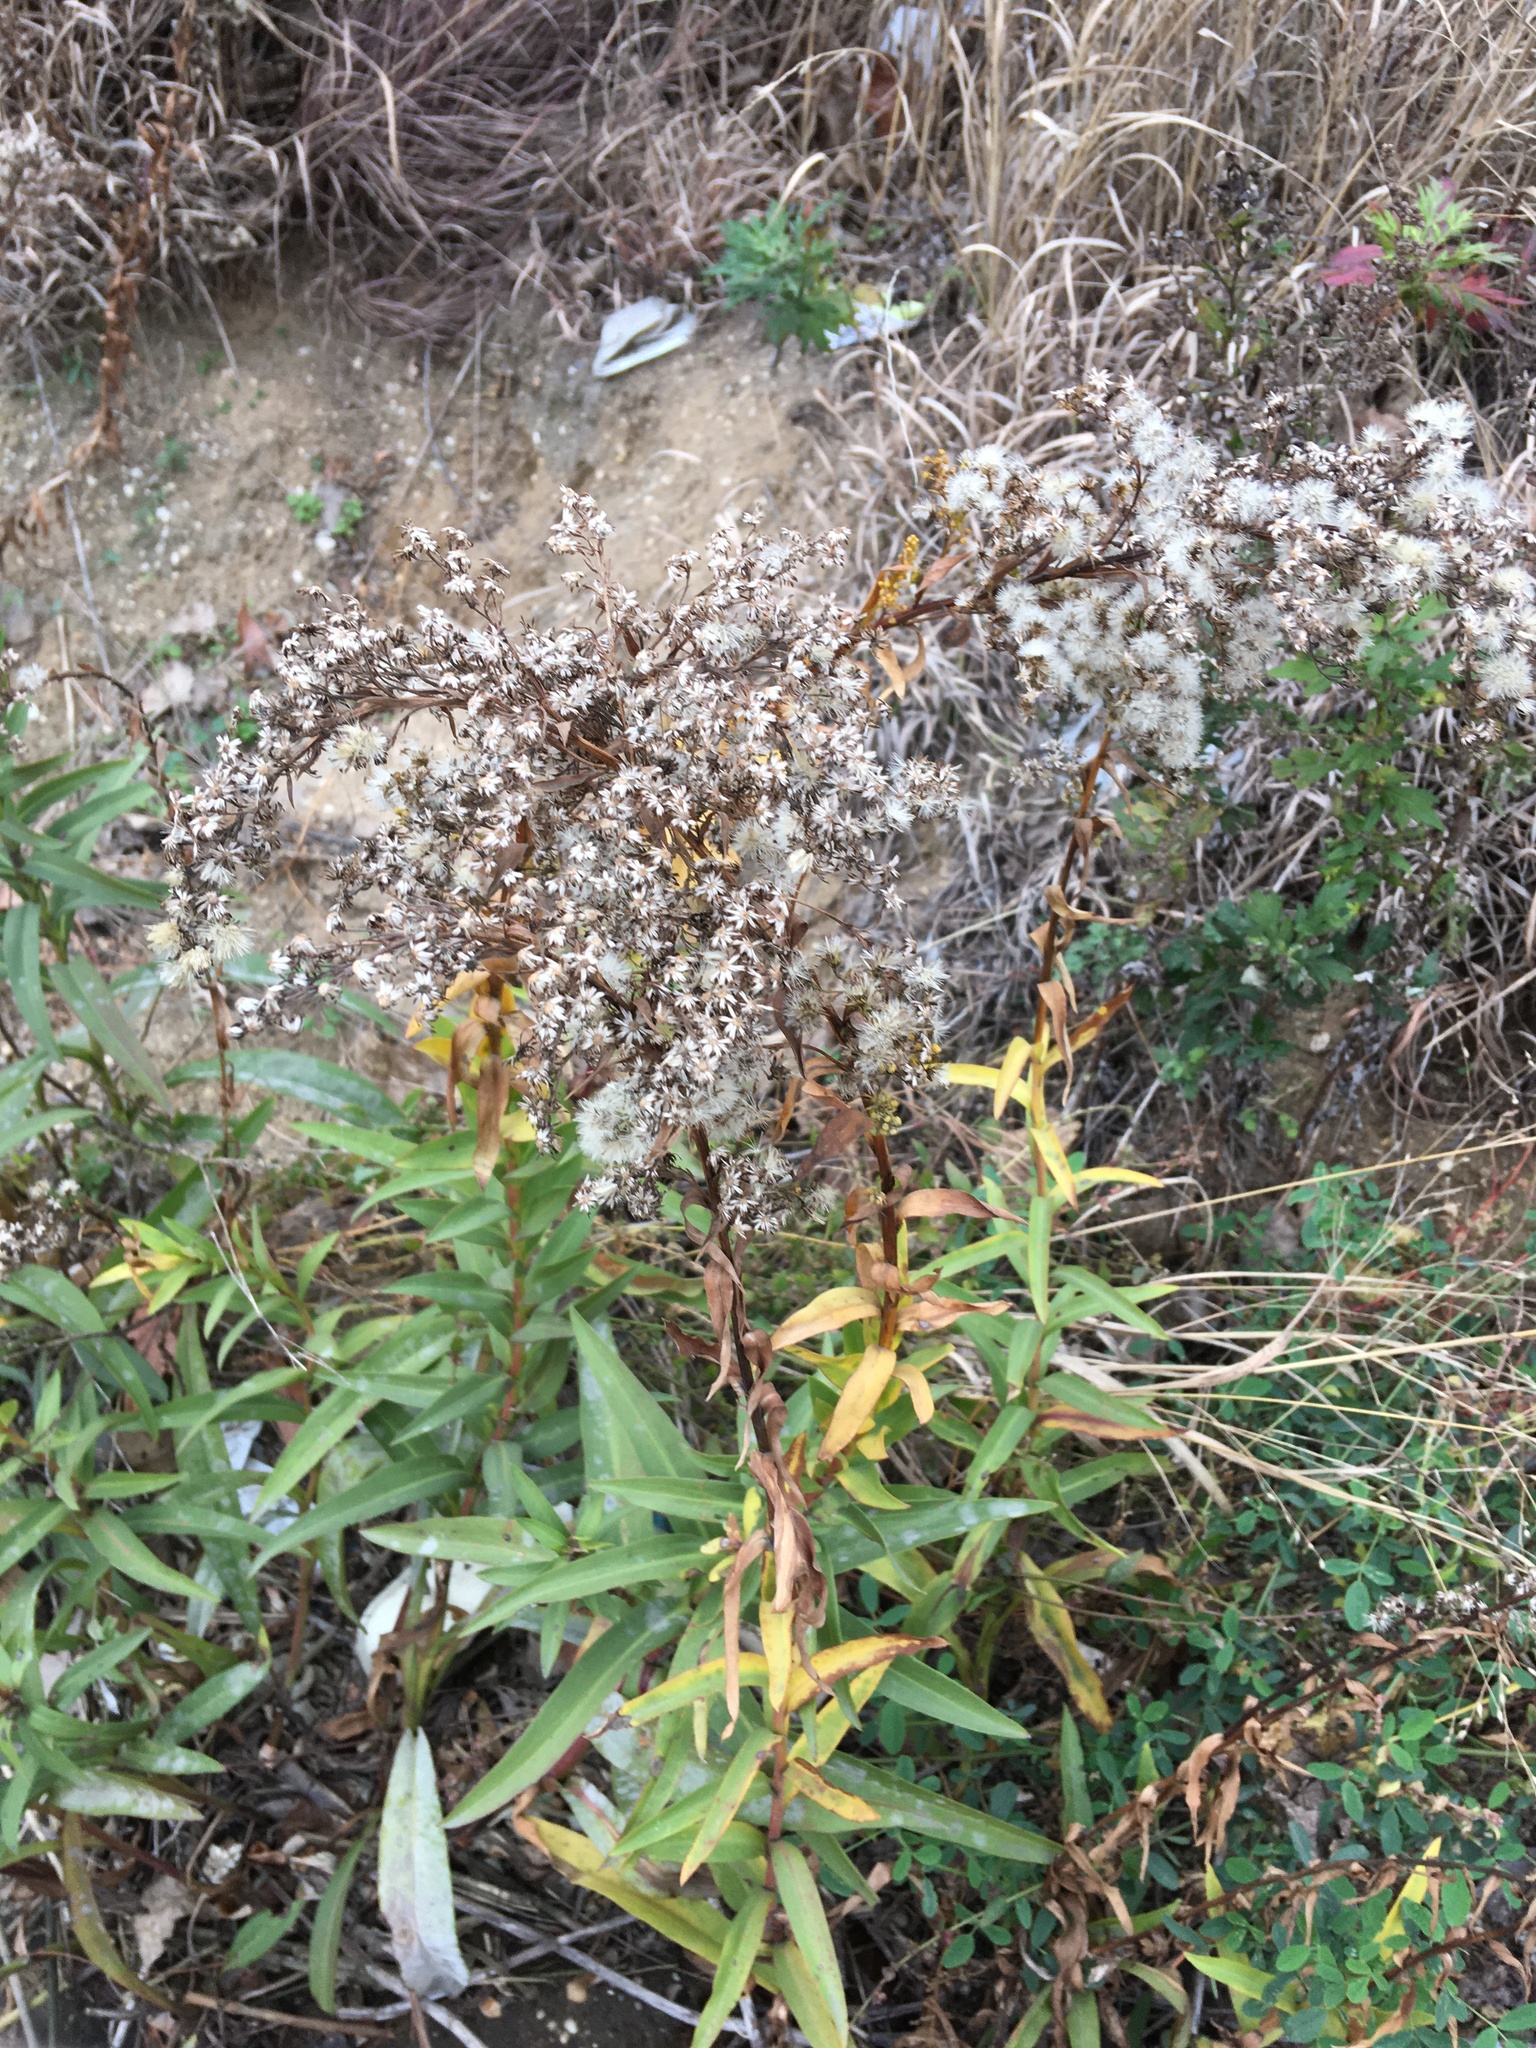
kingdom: Plantae
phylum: Tracheophyta
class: Magnoliopsida
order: Asterales
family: Asteraceae
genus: Solidago
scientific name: Solidago sempervirens
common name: Salt-marsh goldenrod
